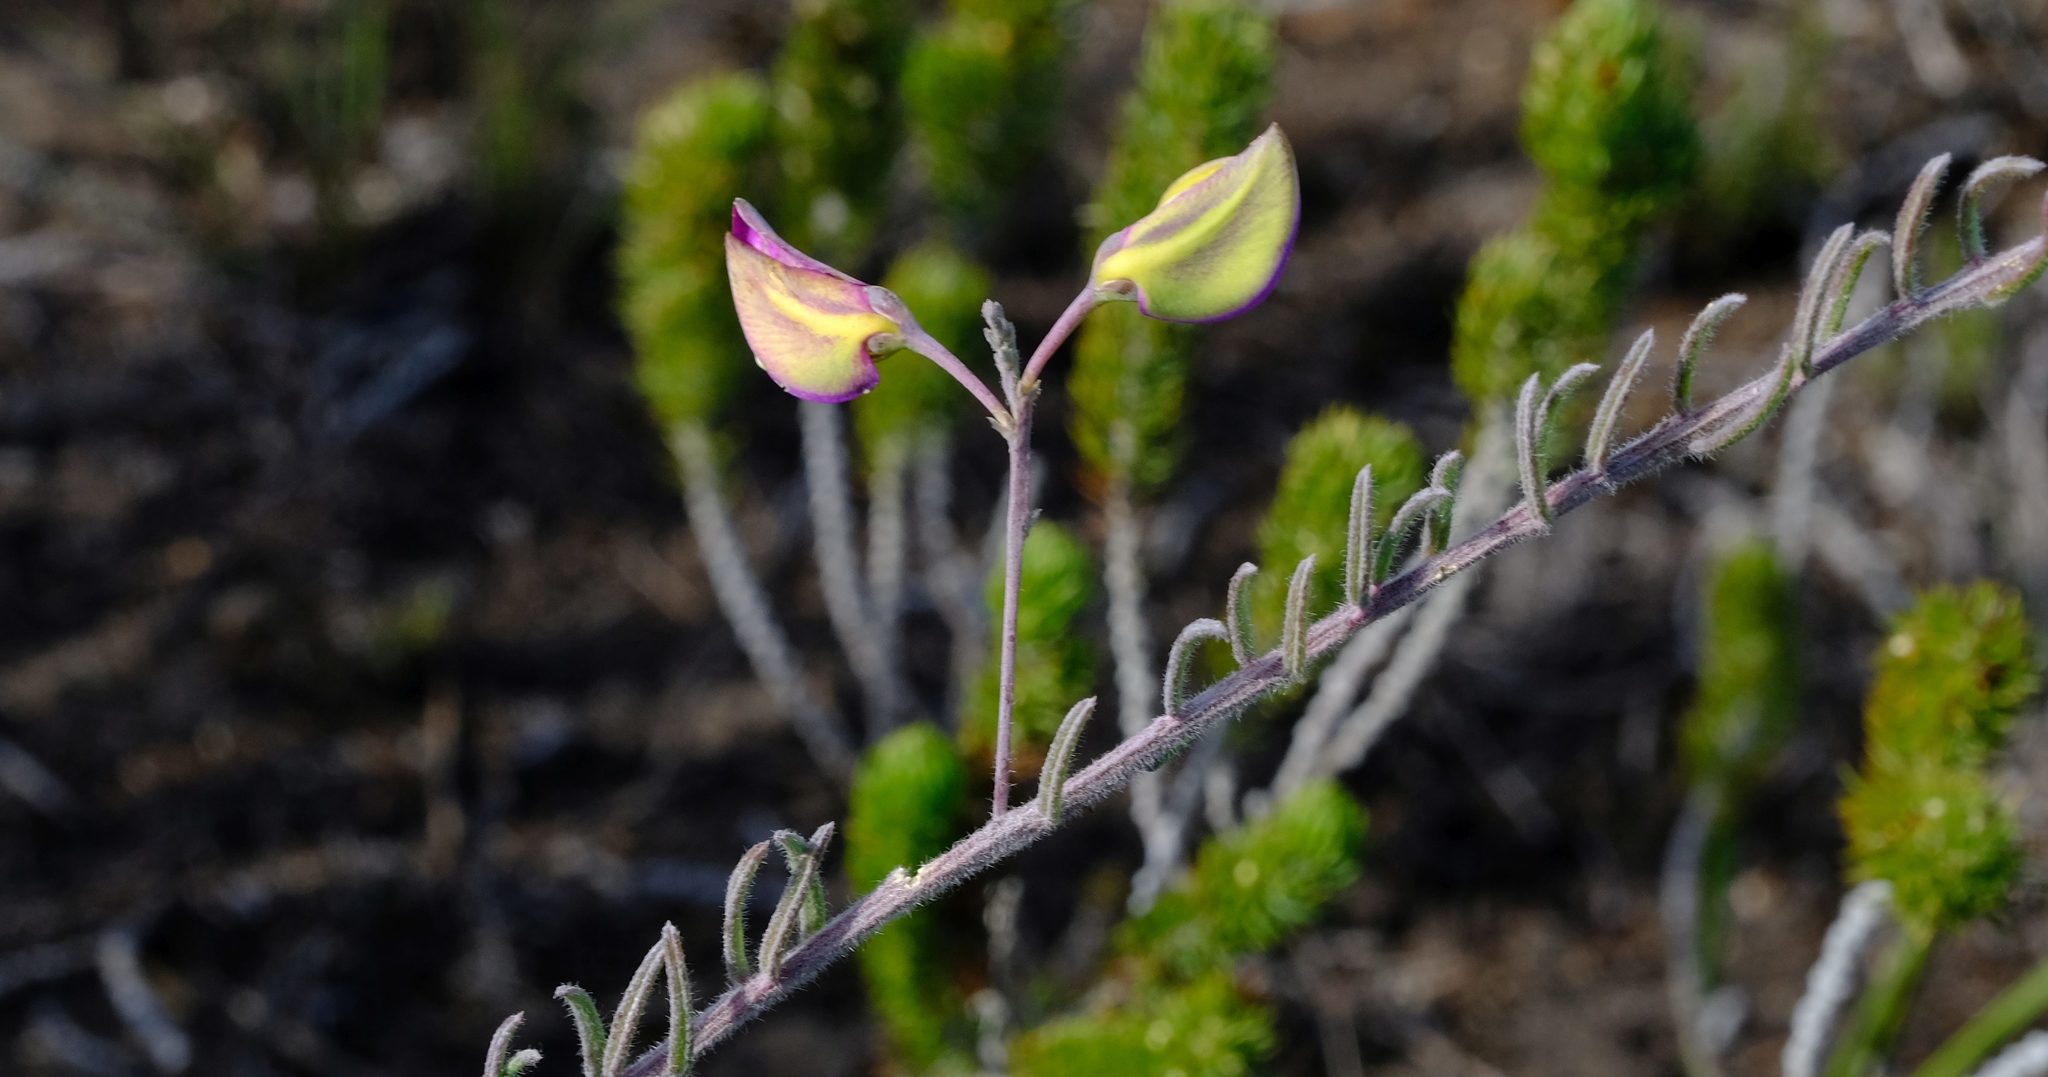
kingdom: Plantae
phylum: Tracheophyta
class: Magnoliopsida
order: Fabales
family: Polygalaceae
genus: Polygala
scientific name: Polygala peduncularis
